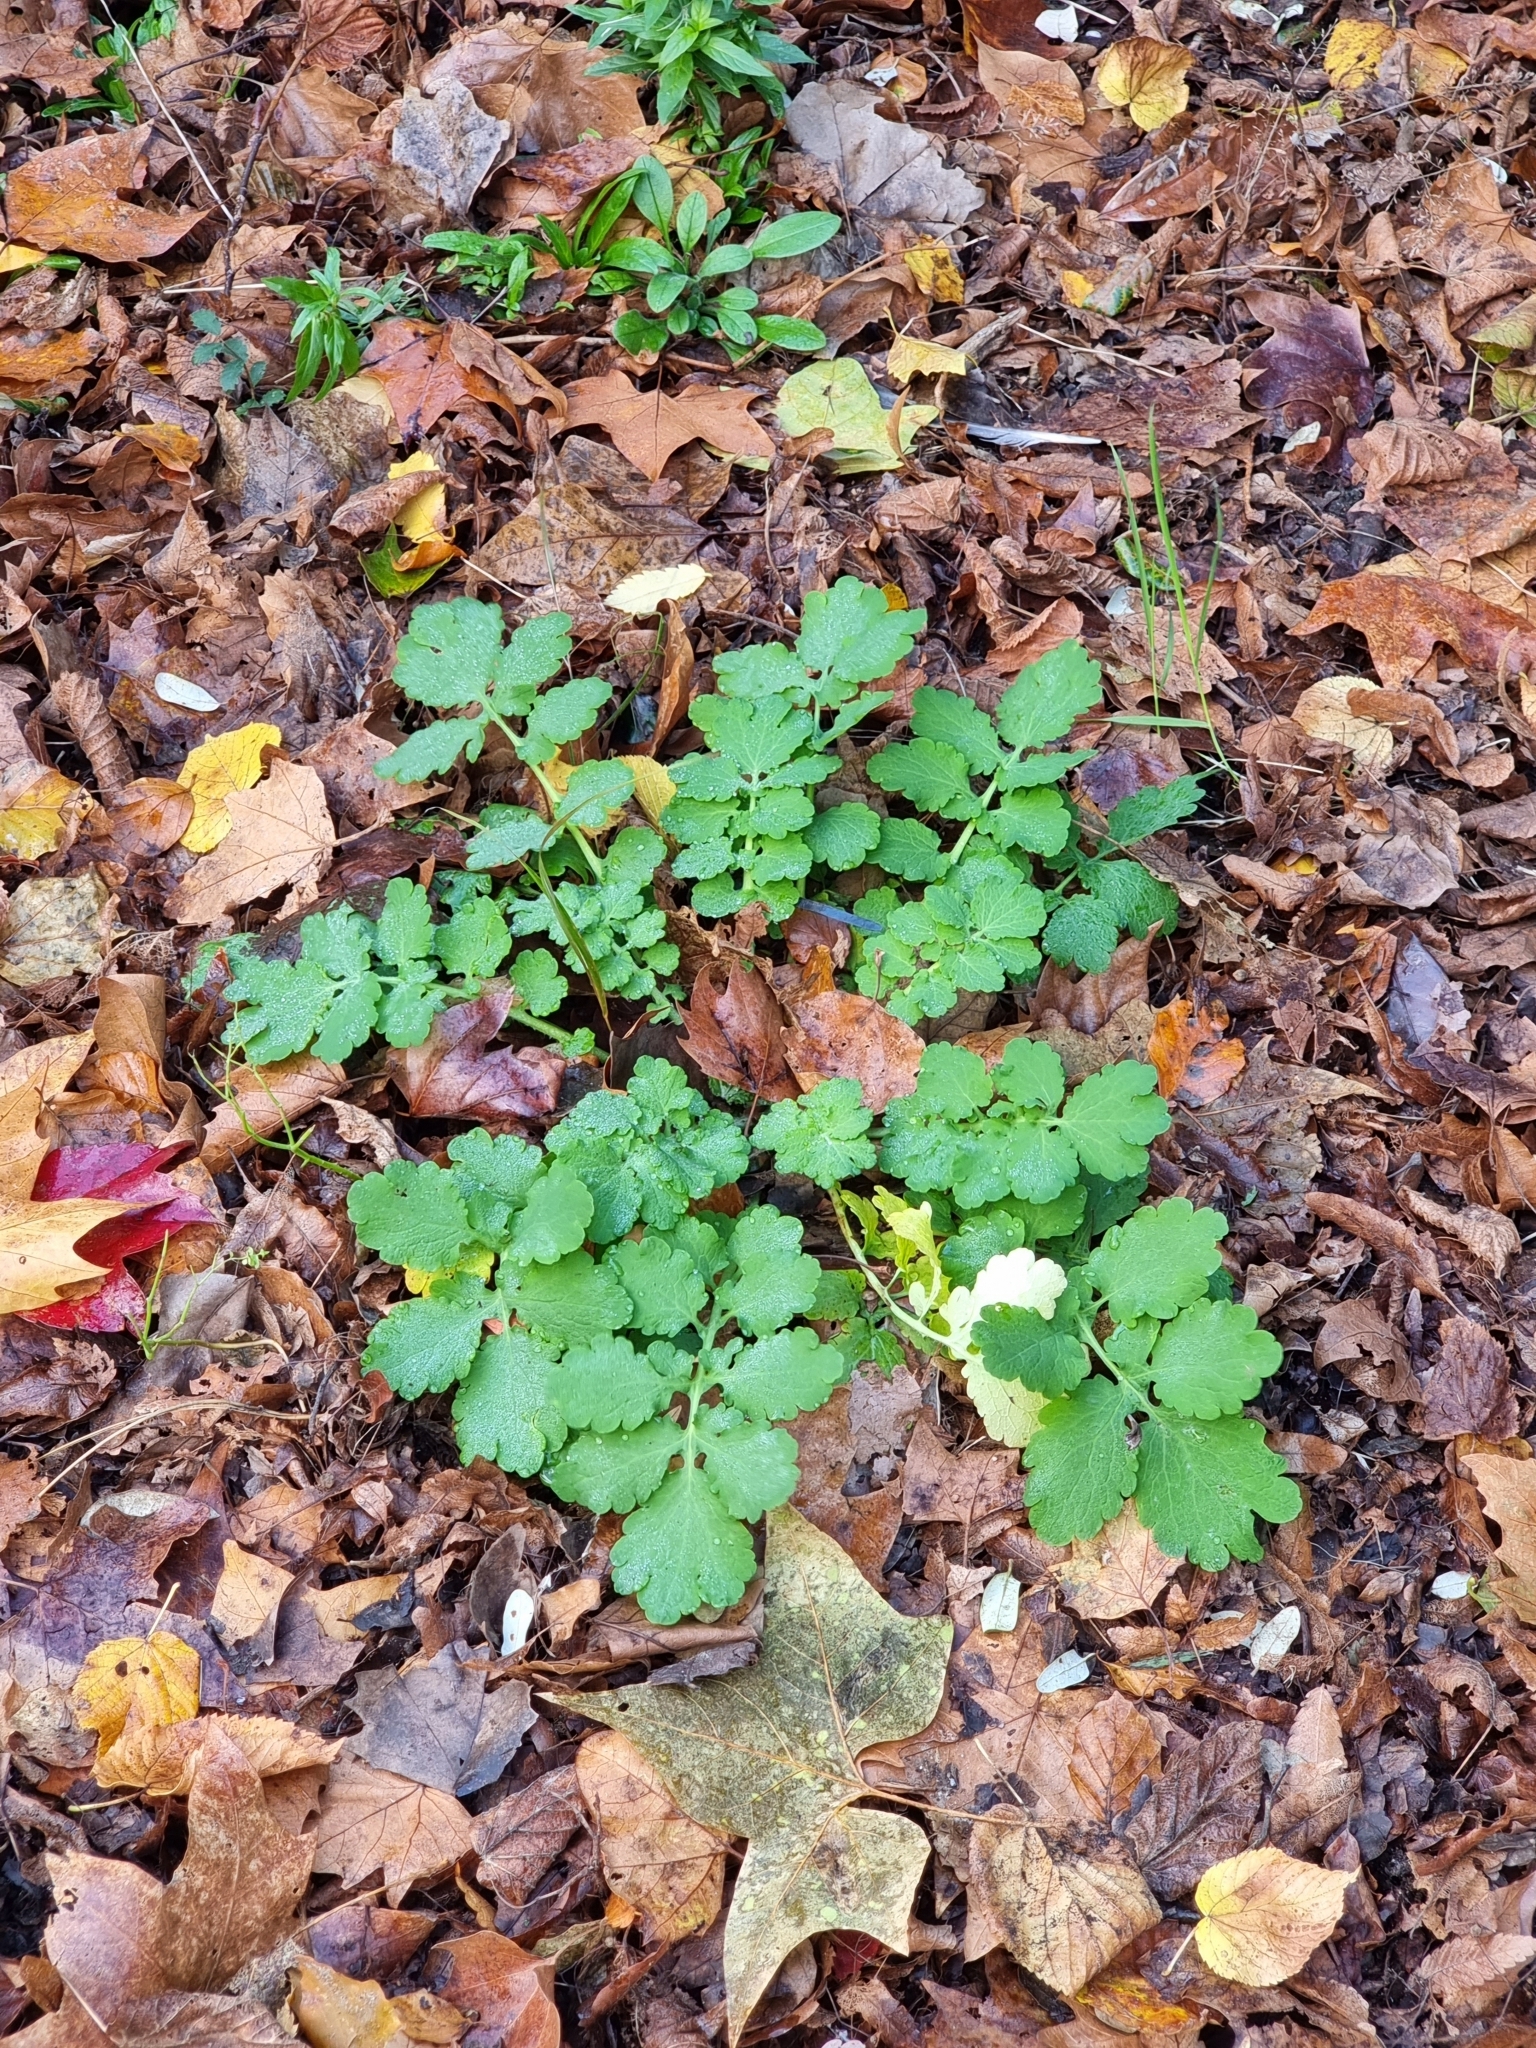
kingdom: Plantae
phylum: Tracheophyta
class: Magnoliopsida
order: Ranunculales
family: Papaveraceae
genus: Chelidonium
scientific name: Chelidonium majus
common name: Greater celandine
